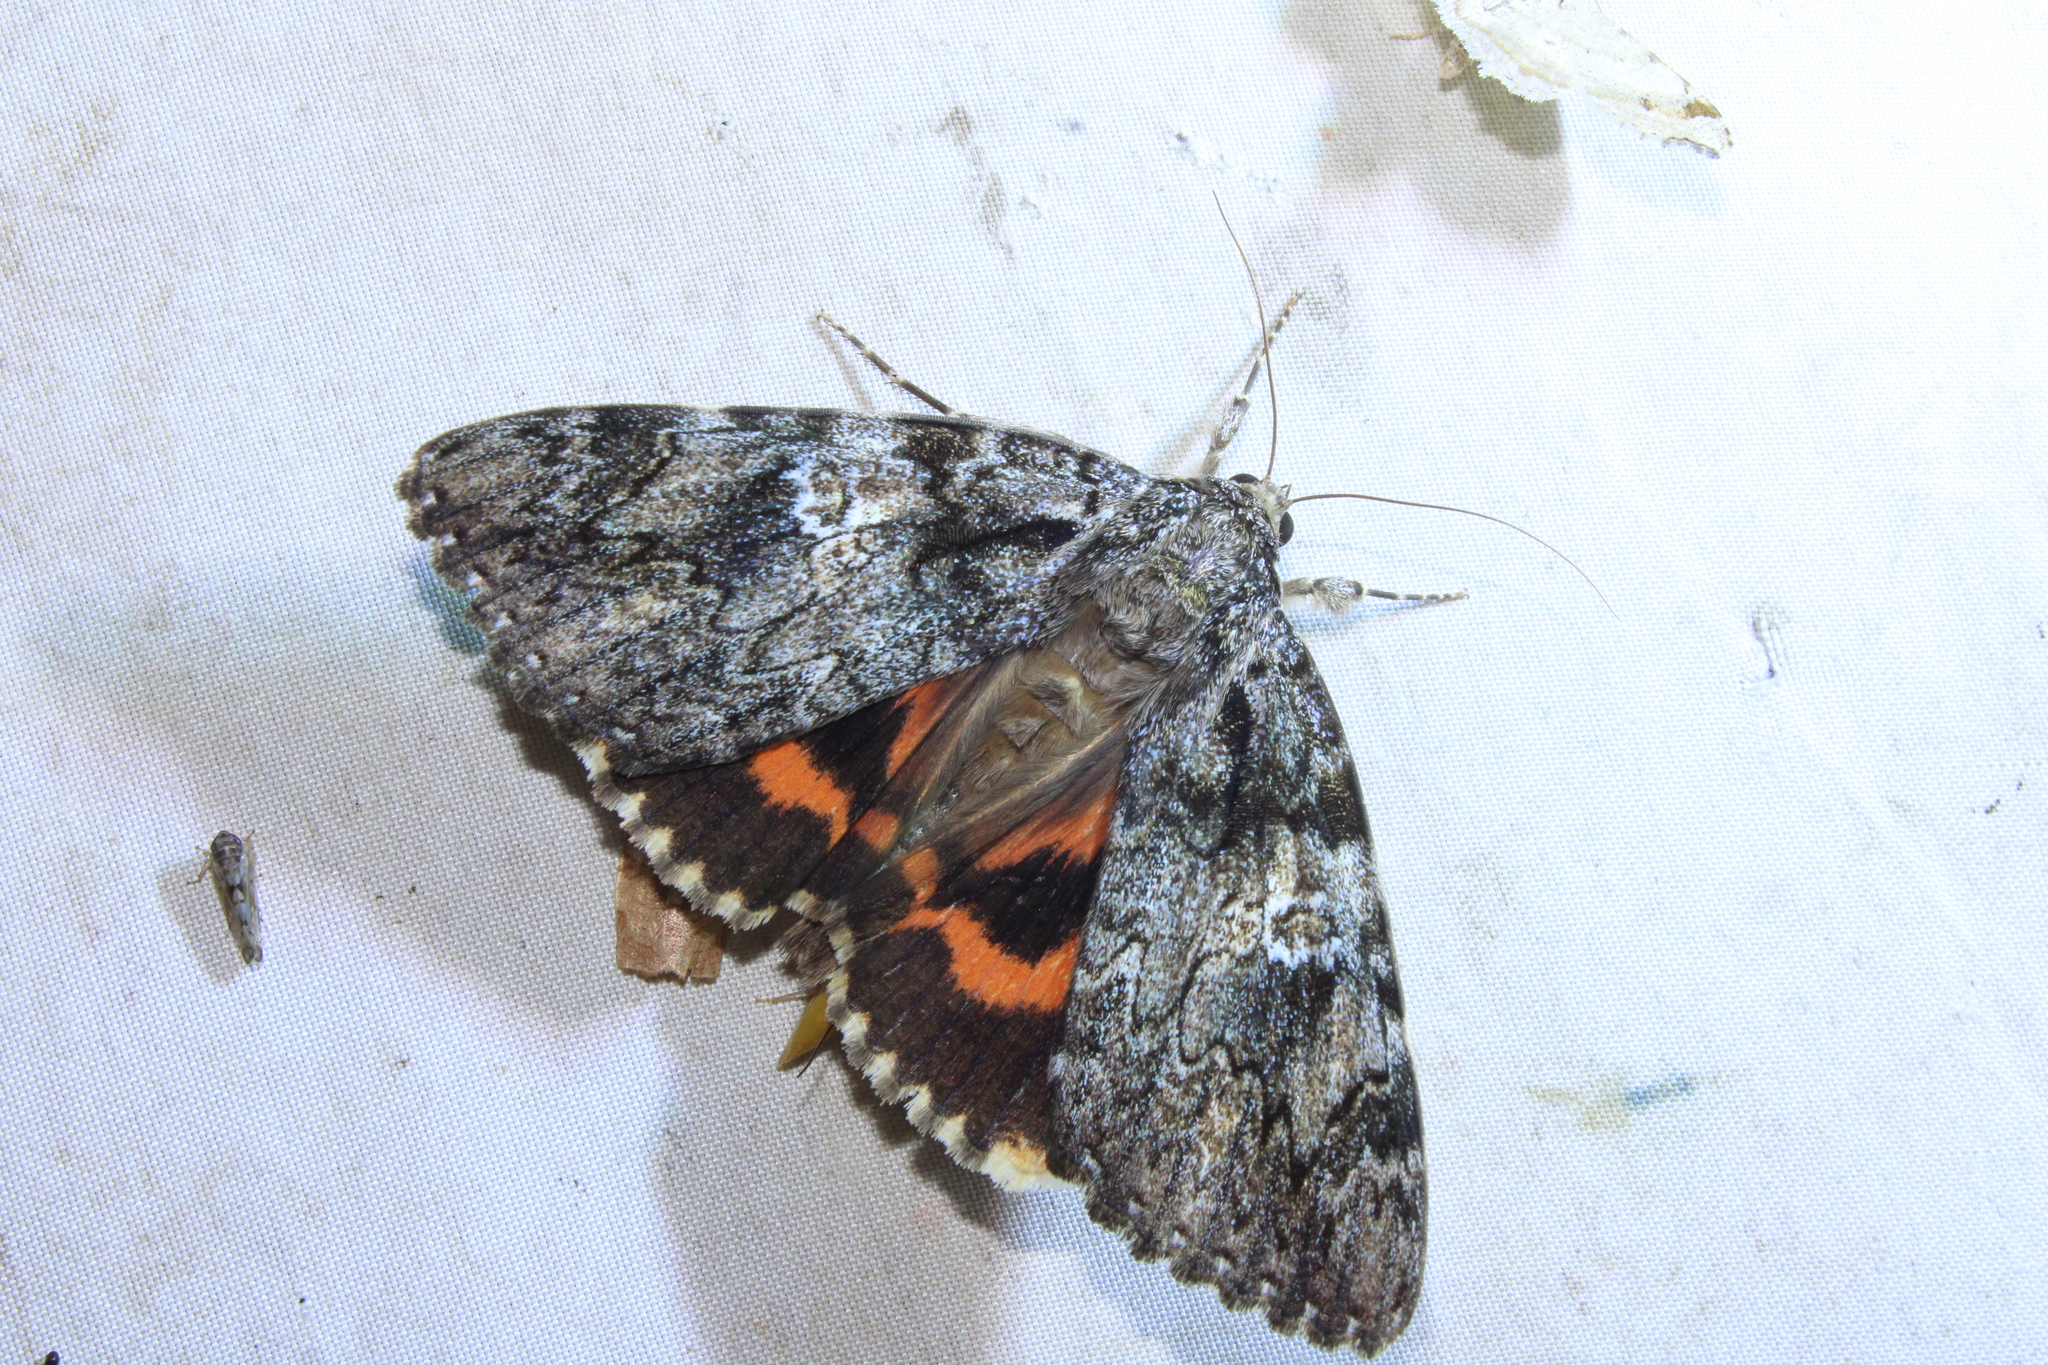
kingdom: Animalia
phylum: Arthropoda
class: Insecta
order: Lepidoptera
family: Erebidae
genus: Catocala
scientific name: Catocala ilia
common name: Ilia underwing
